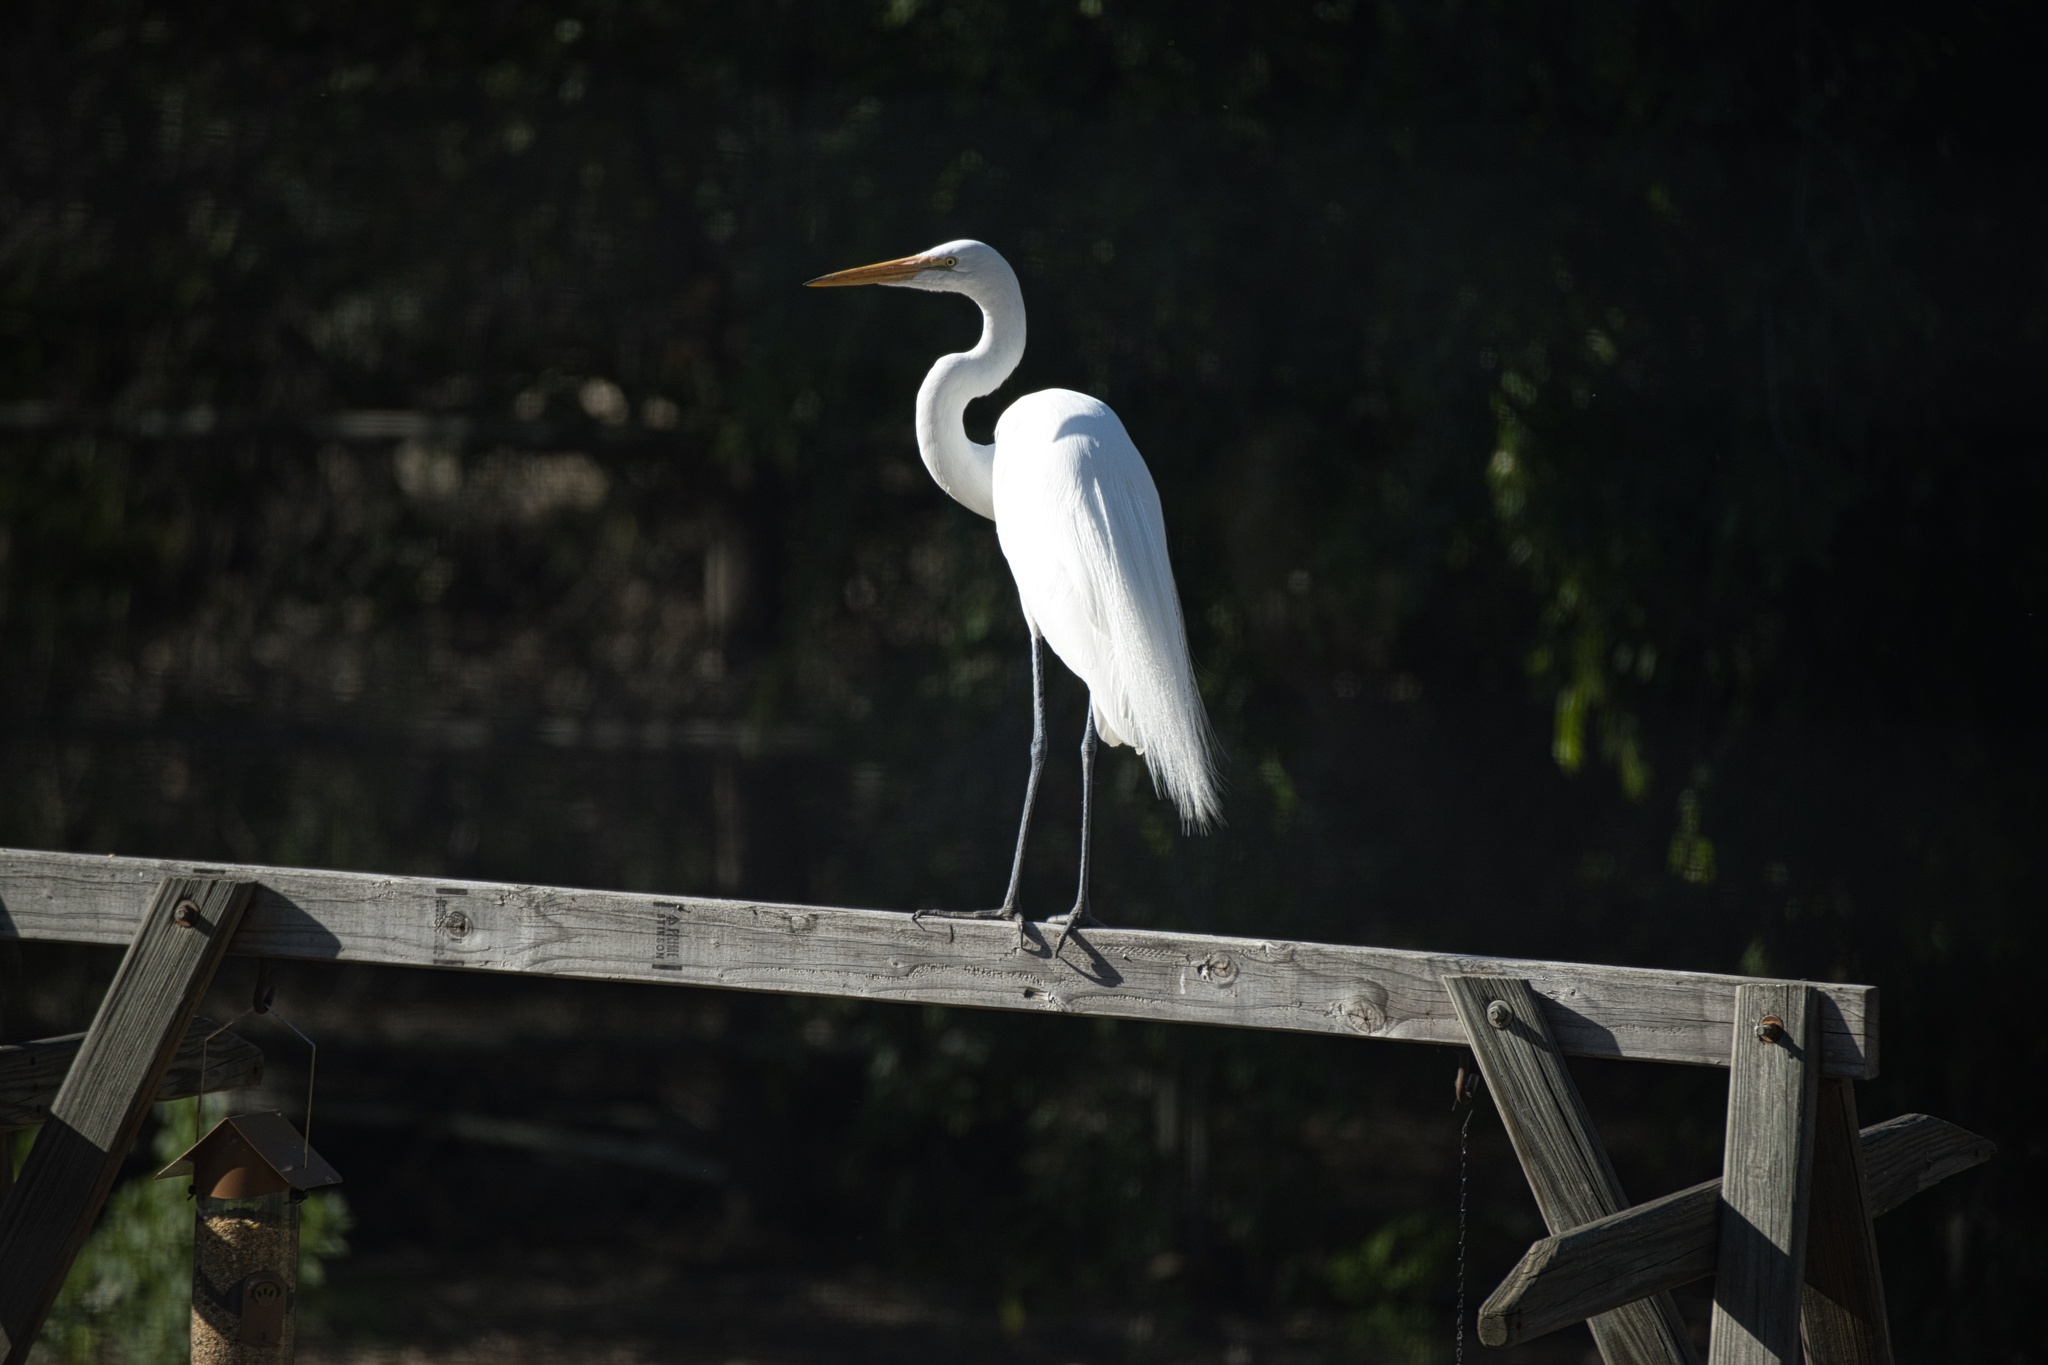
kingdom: Animalia
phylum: Chordata
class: Aves
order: Pelecaniformes
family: Ardeidae
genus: Ardea
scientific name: Ardea alba
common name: Great egret
